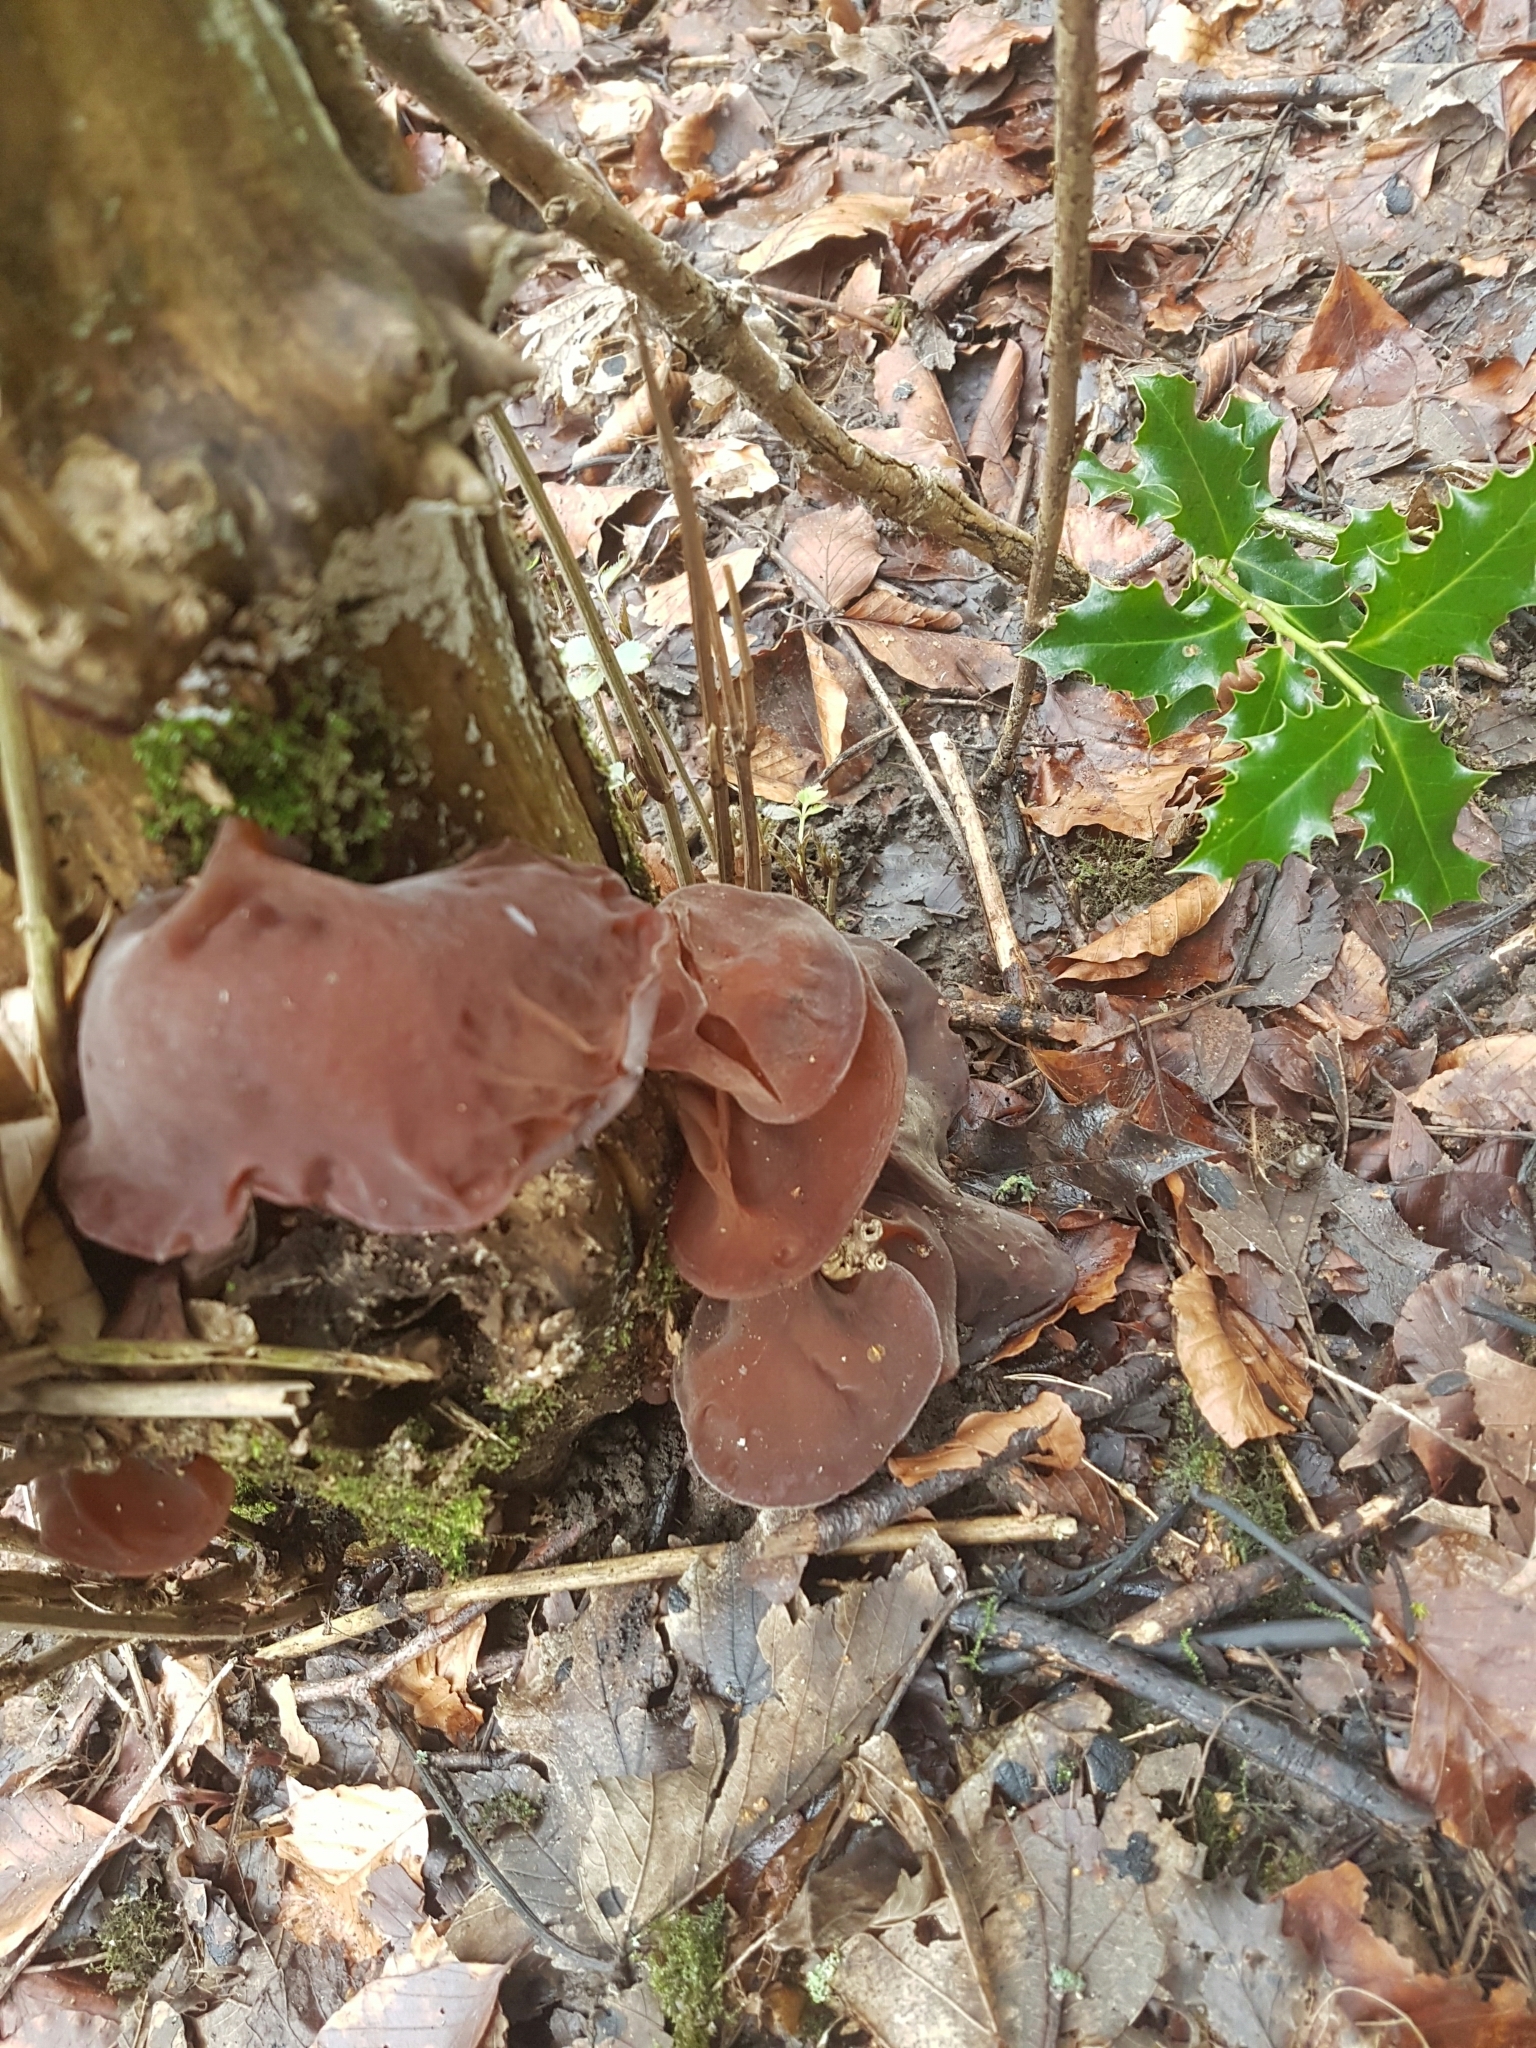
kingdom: Fungi
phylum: Basidiomycota
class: Agaricomycetes
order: Auriculariales
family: Auriculariaceae
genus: Auricularia
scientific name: Auricularia auricula-judae
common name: Jelly ear
